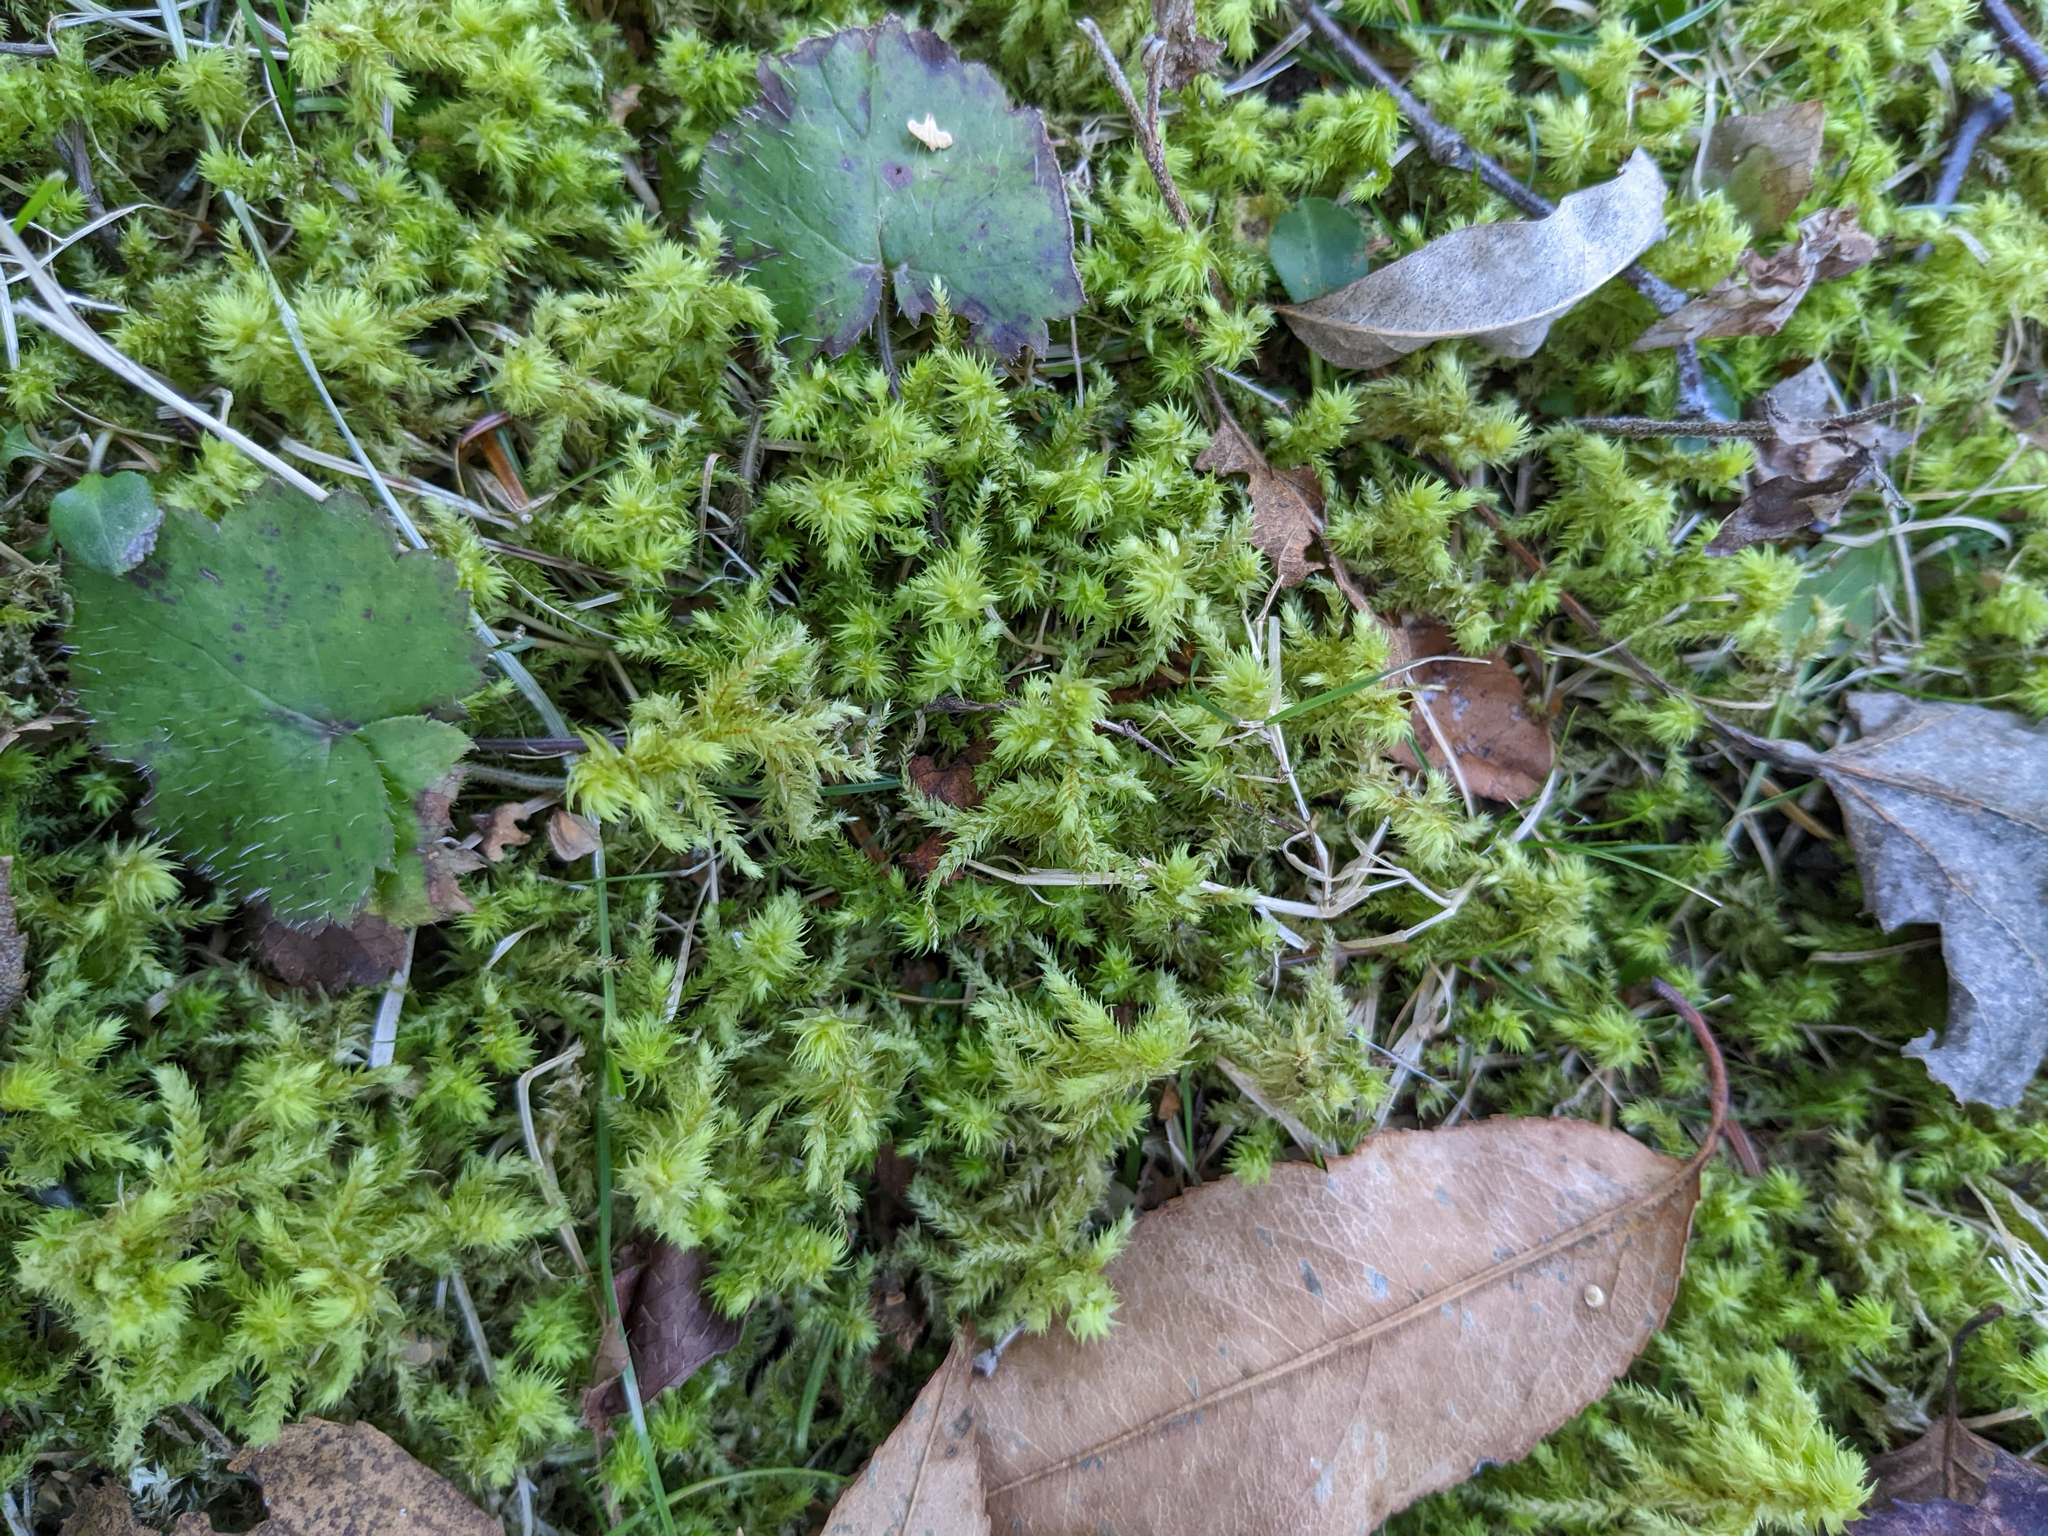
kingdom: Plantae
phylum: Tracheophyta
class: Magnoliopsida
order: Saxifragales
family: Saxifragaceae
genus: Tiarella
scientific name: Tiarella stolonifera
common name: Stoloniferous foamflower
